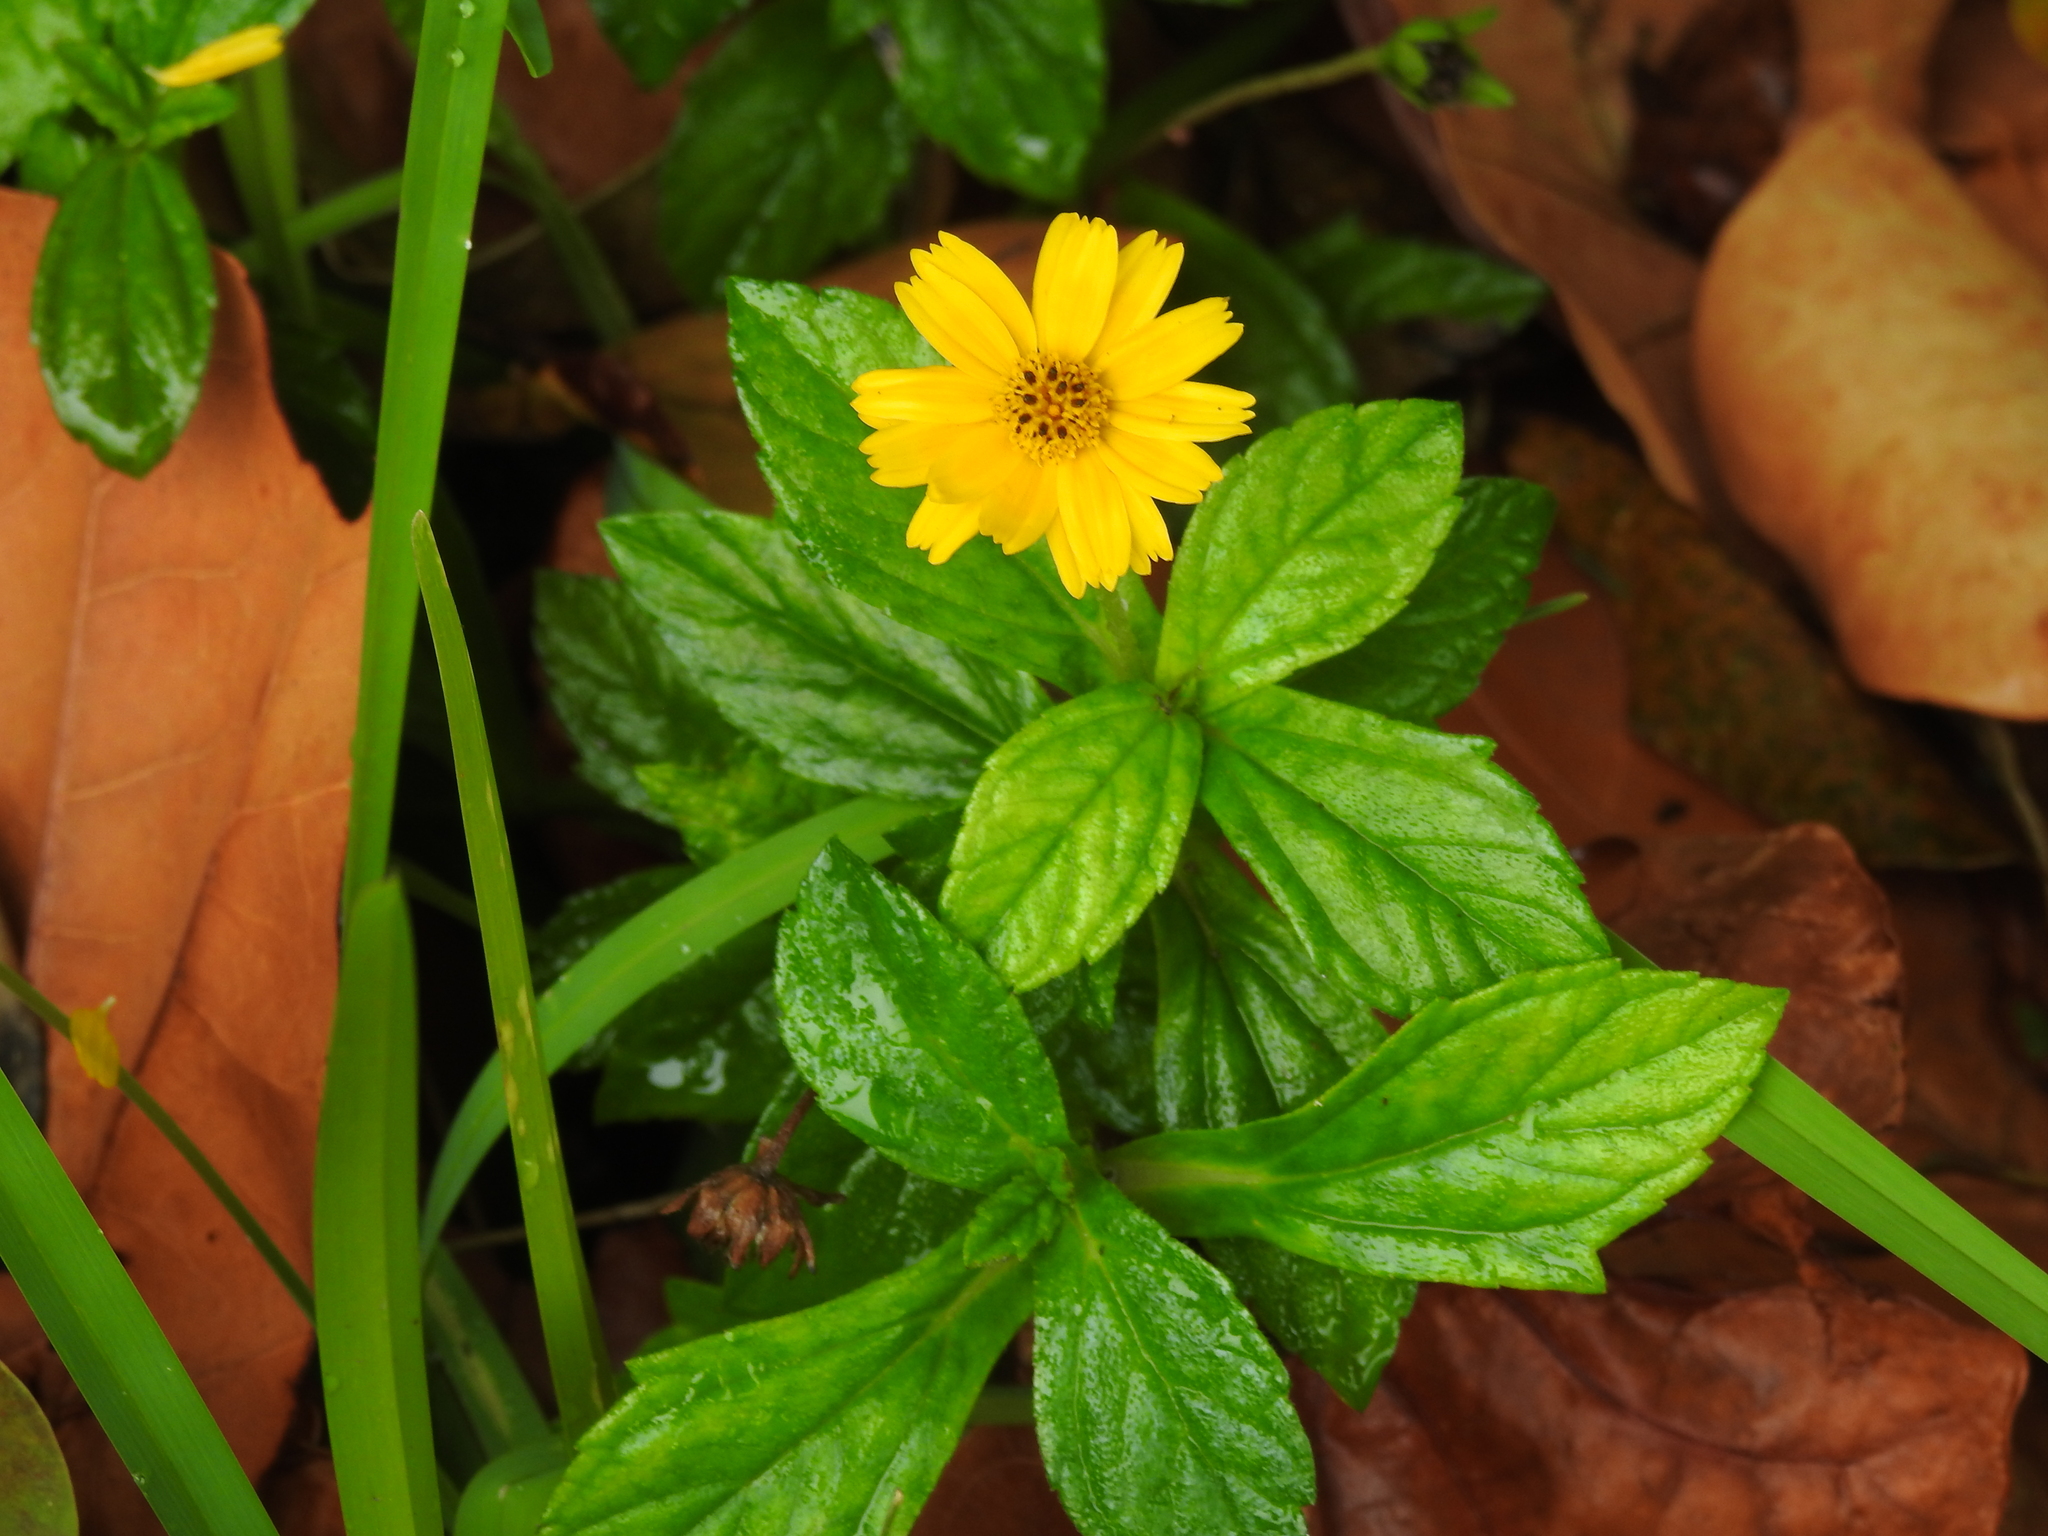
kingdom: Plantae
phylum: Tracheophyta
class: Magnoliopsida
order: Asterales
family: Asteraceae
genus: Sphagneticola
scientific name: Sphagneticola trilobata
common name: Bay biscayne creeping-oxeye
